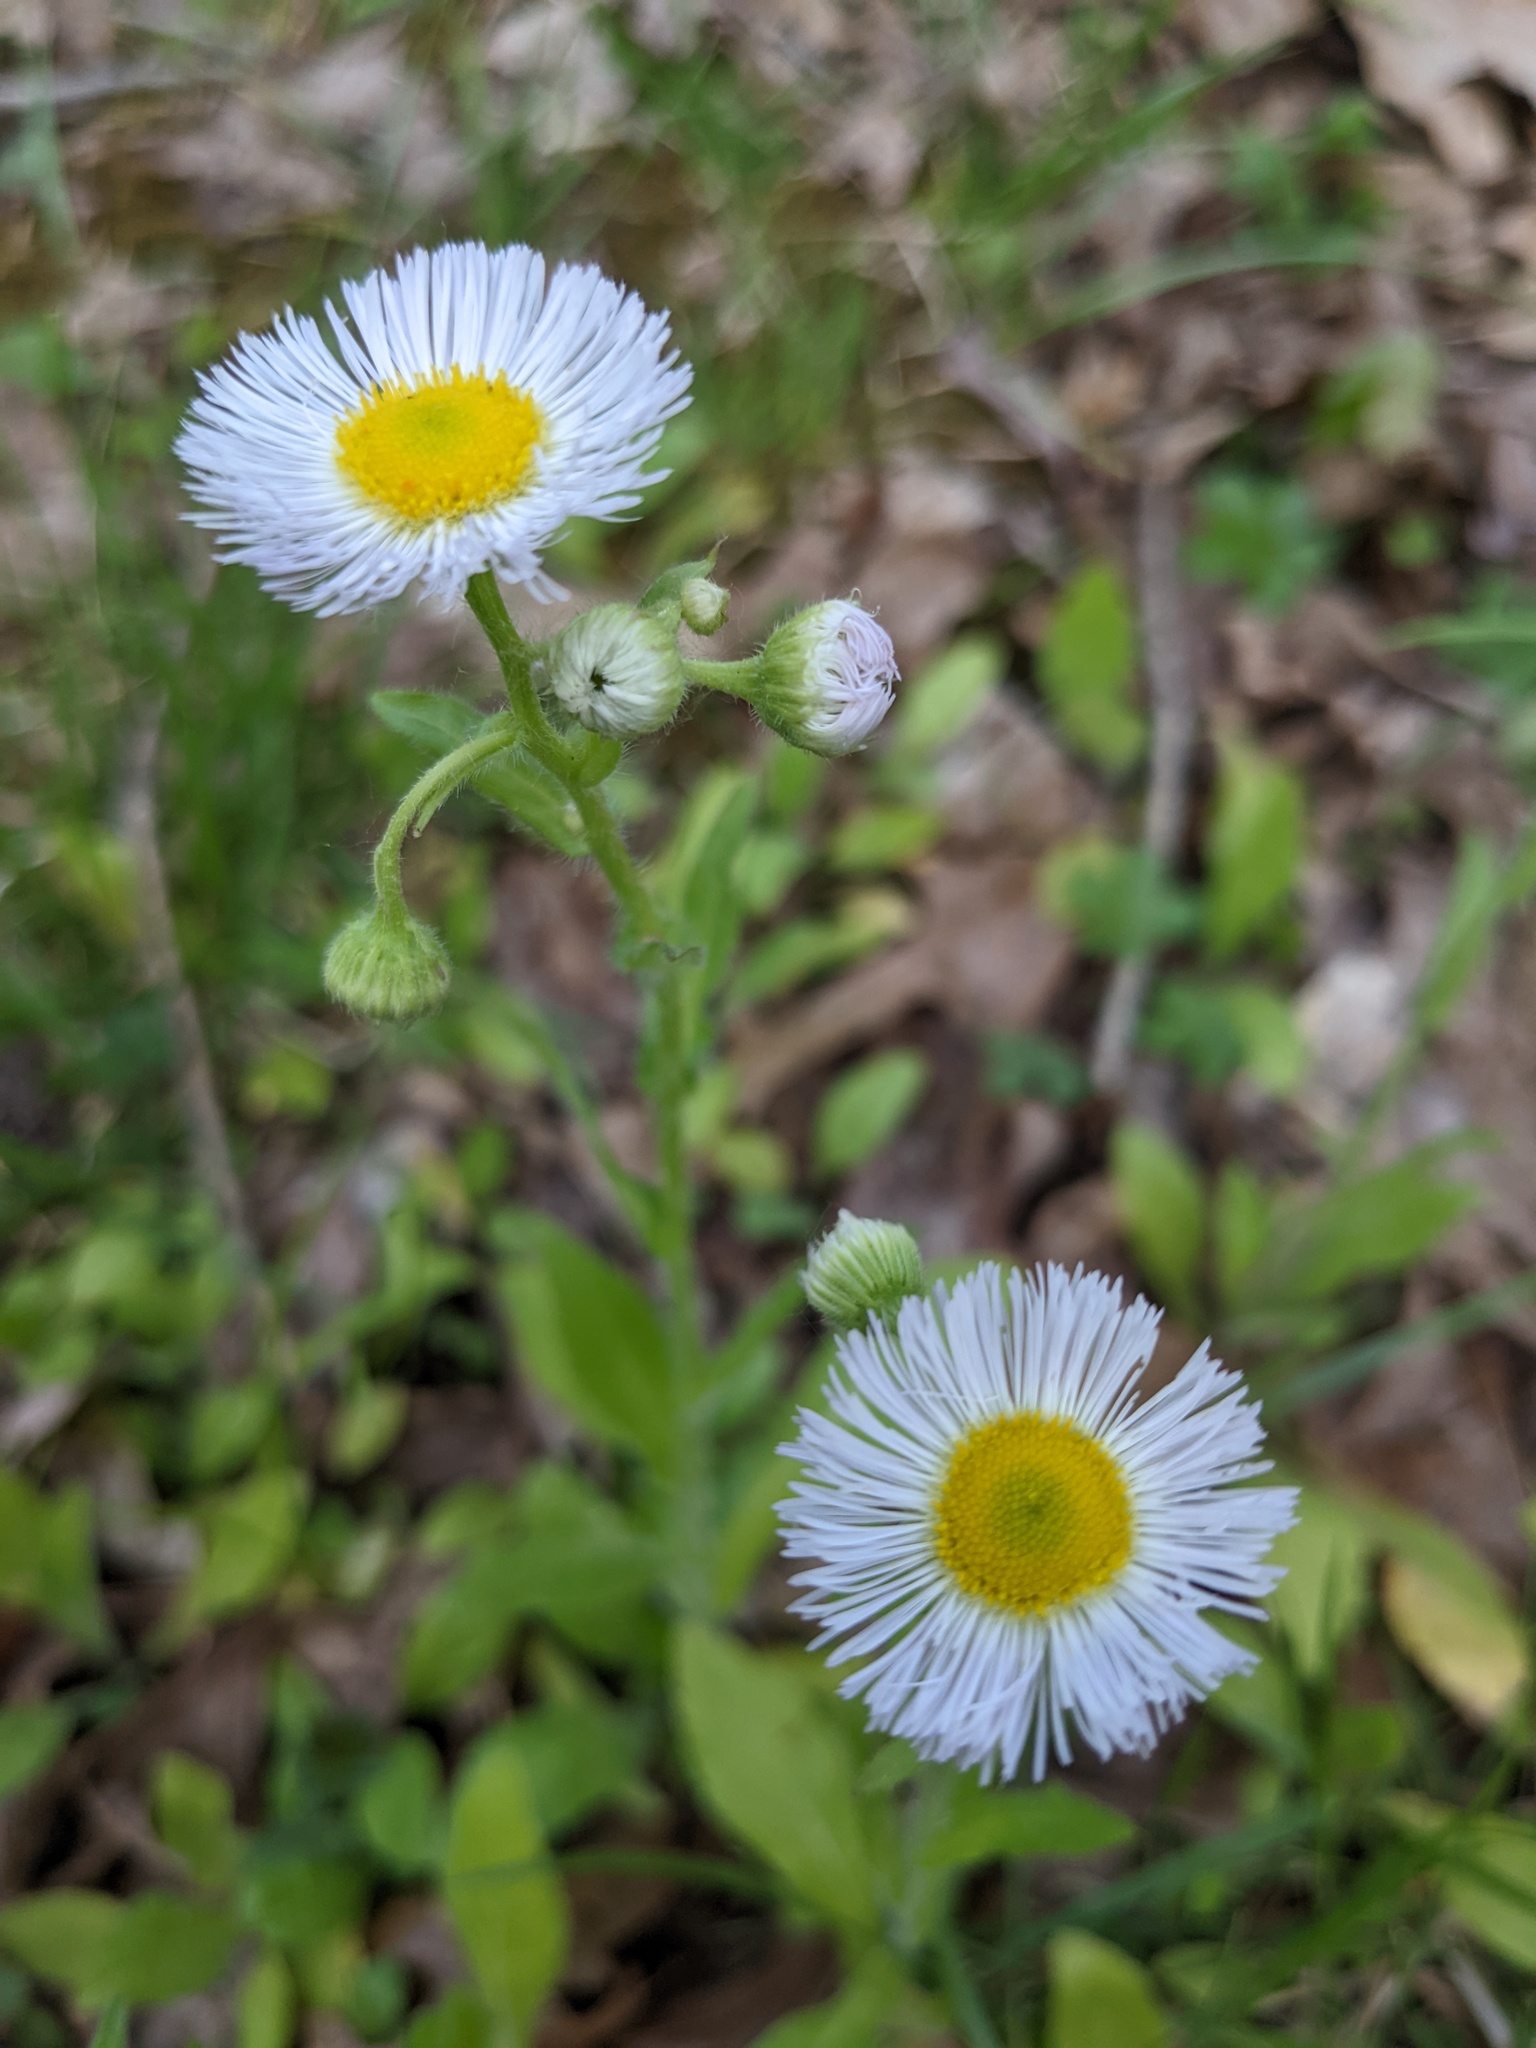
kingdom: Plantae
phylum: Tracheophyta
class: Magnoliopsida
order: Asterales
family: Asteraceae
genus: Erigeron
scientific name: Erigeron philadelphicus
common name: Robin's-plantain
